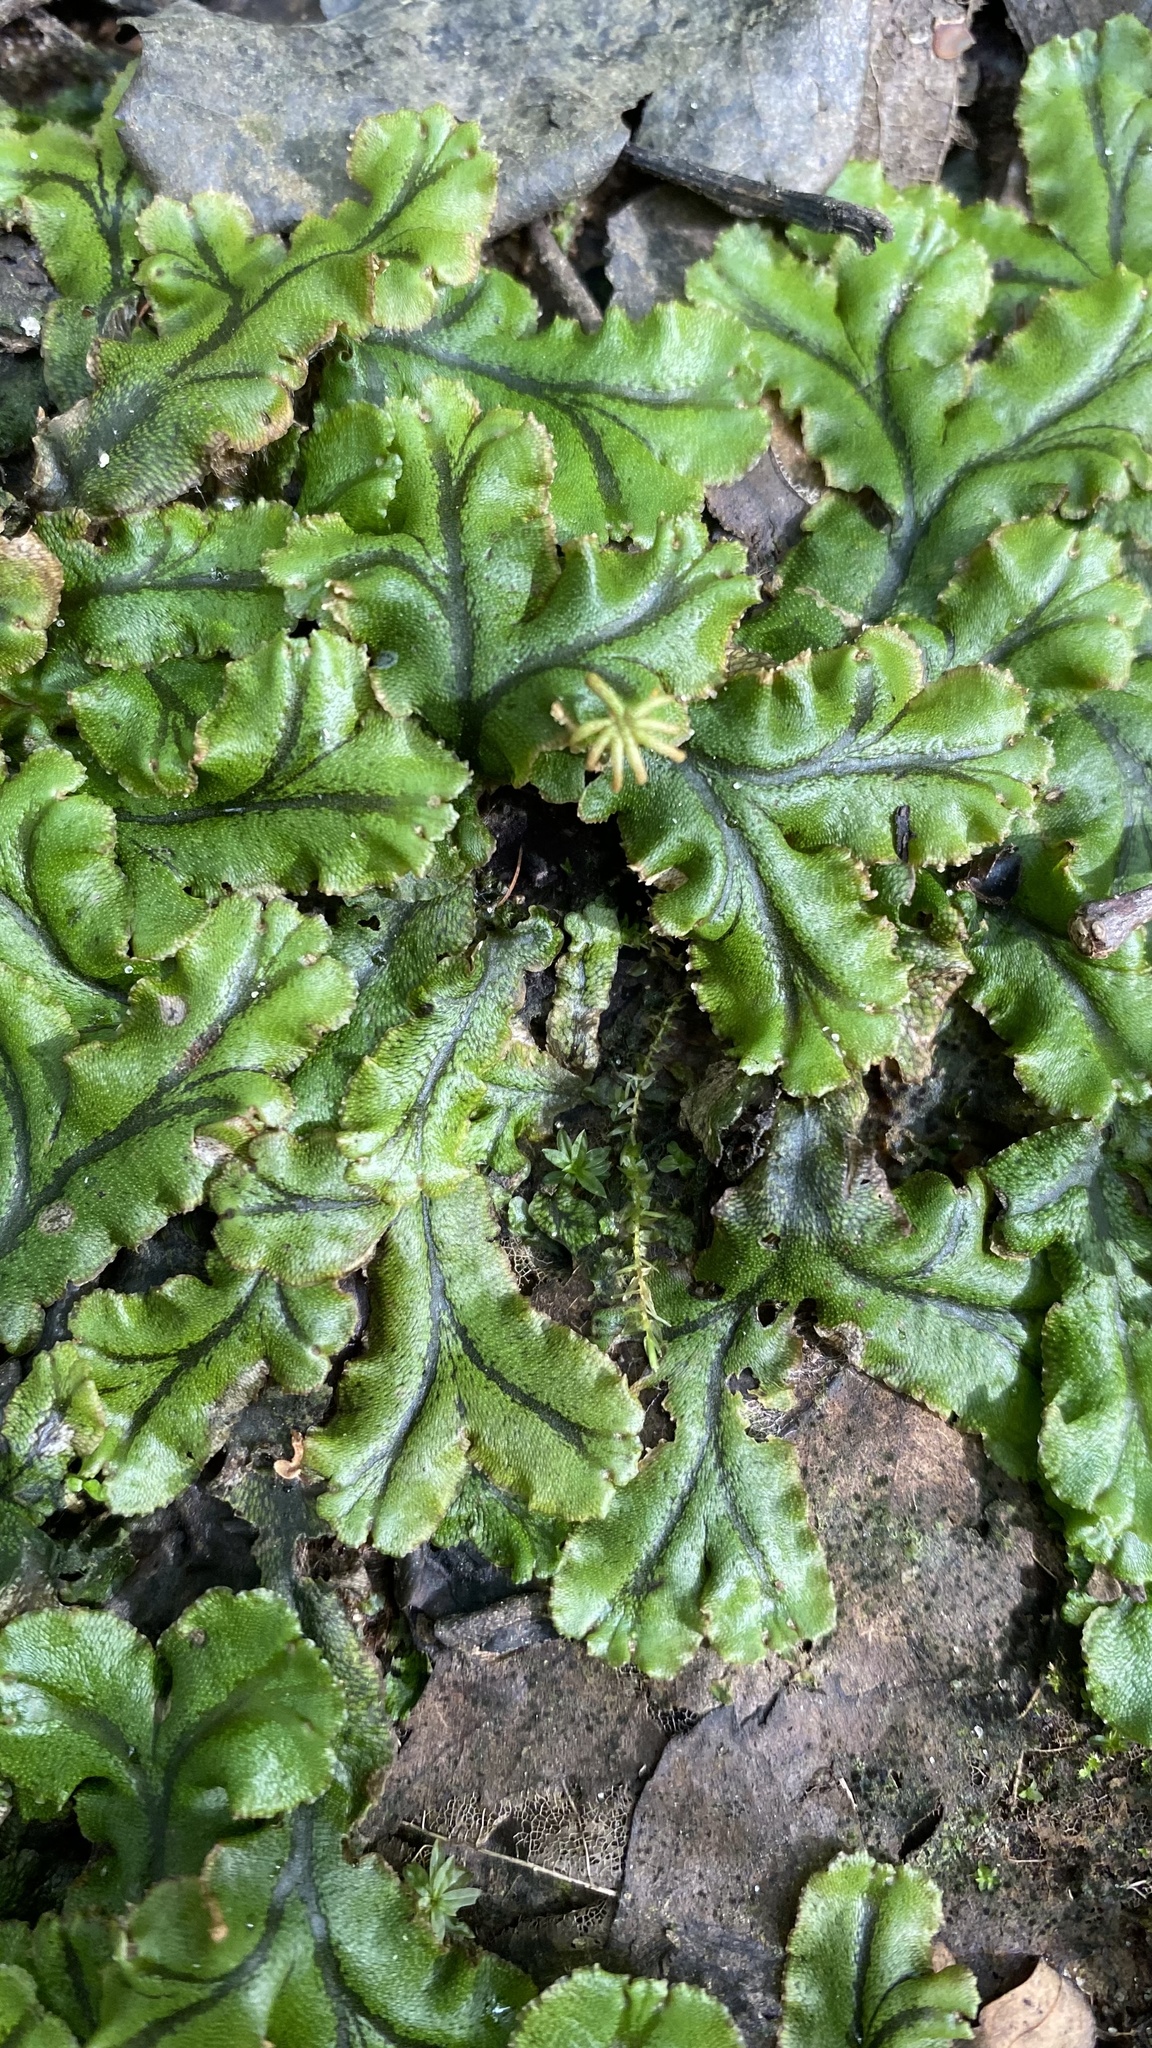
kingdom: Plantae
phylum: Marchantiophyta
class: Marchantiopsida
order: Marchantiales
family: Marchantiaceae
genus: Marchantia
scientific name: Marchantia polymorpha
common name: Common liverwort
